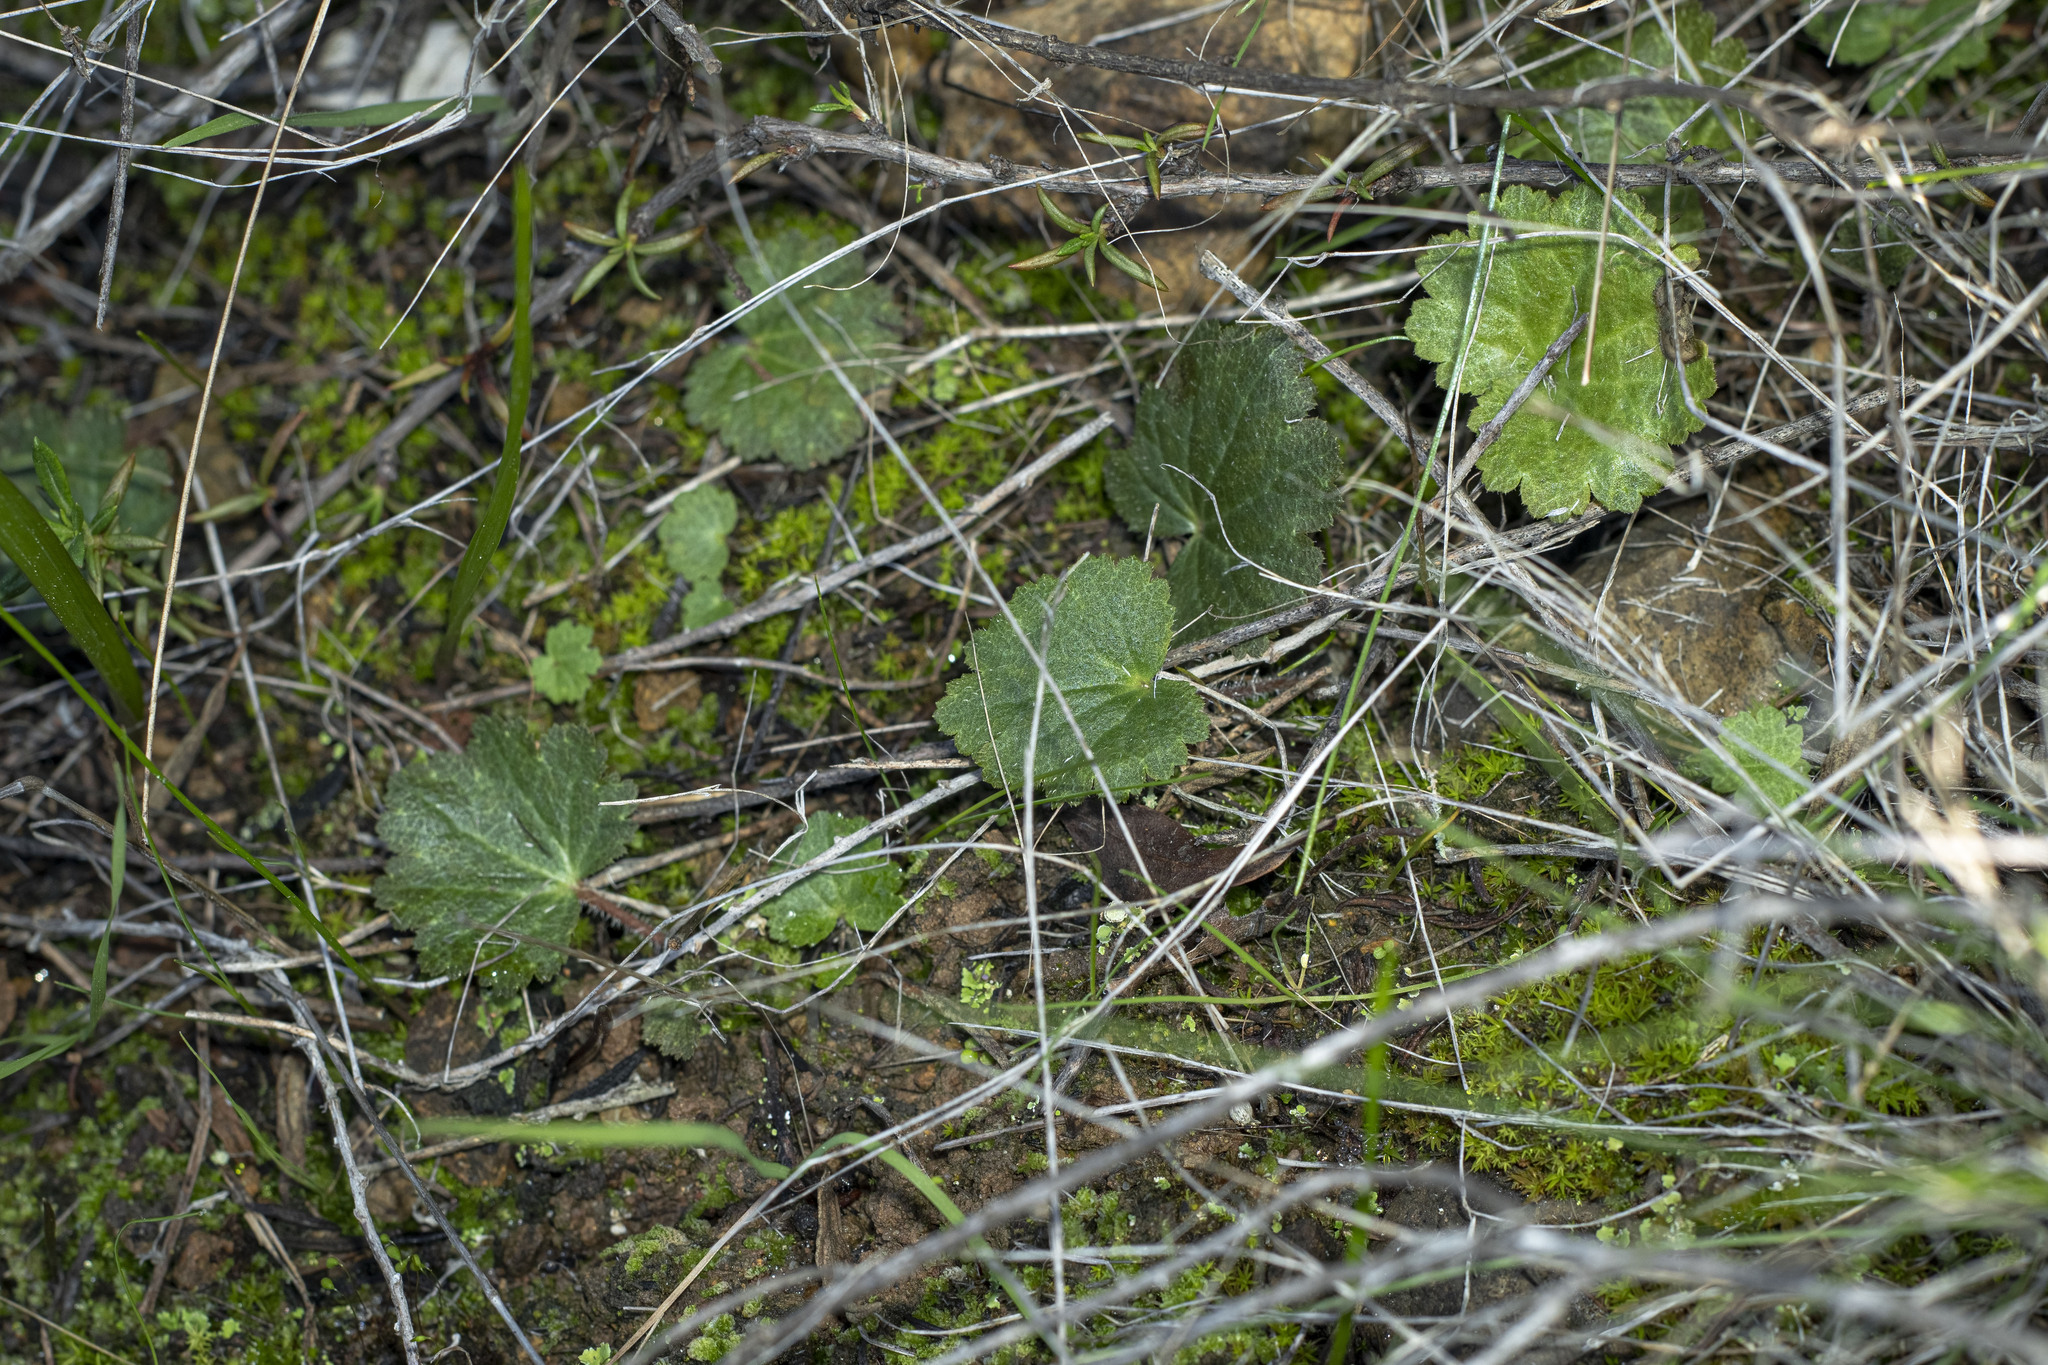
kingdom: Plantae
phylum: Tracheophyta
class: Magnoliopsida
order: Saxifragales
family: Saxifragaceae
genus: Jepsonia
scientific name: Jepsonia parryi
